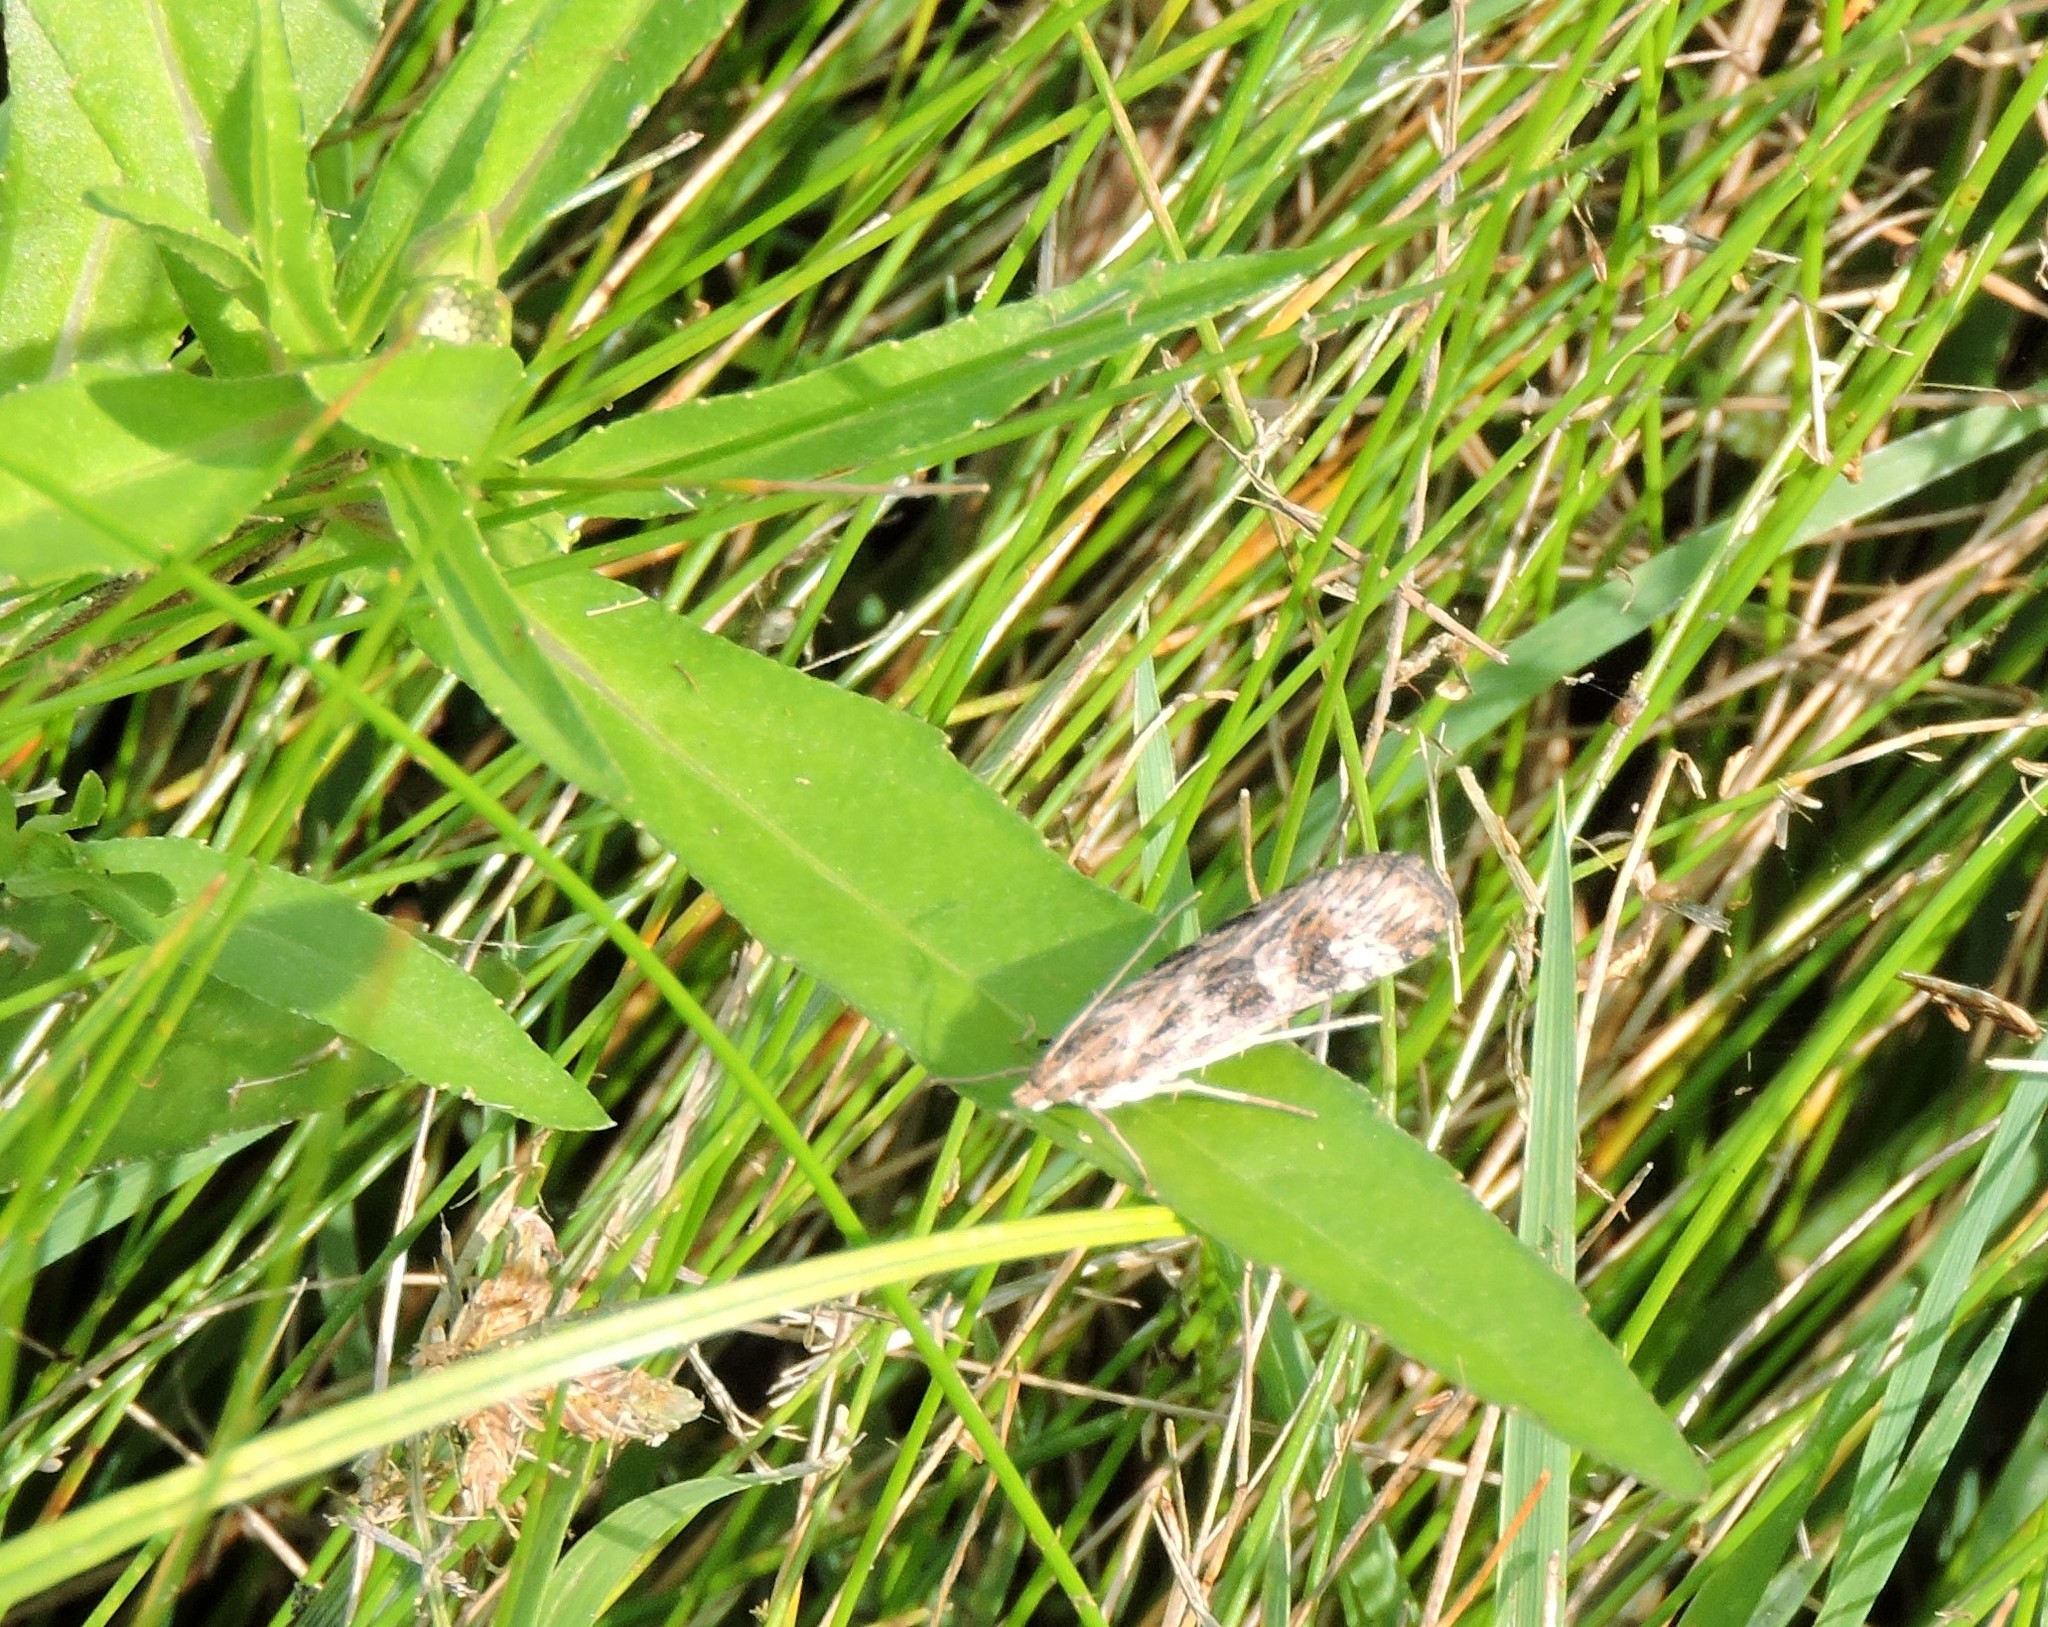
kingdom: Animalia
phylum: Arthropoda
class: Insecta
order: Lepidoptera
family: Crambidae
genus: Nomophila
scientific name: Nomophila nearctica
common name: American rush veneer
